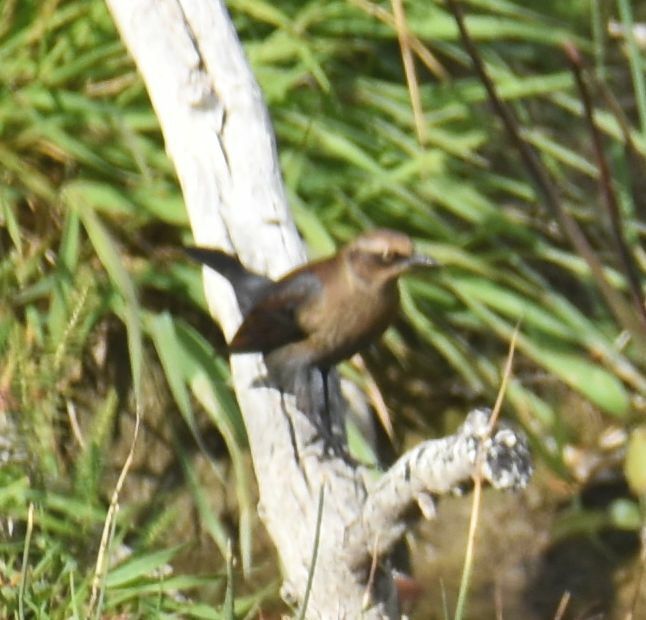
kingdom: Animalia
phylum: Chordata
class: Aves
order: Passeriformes
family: Icteridae
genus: Euphagus
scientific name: Euphagus carolinus
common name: Rusty blackbird
